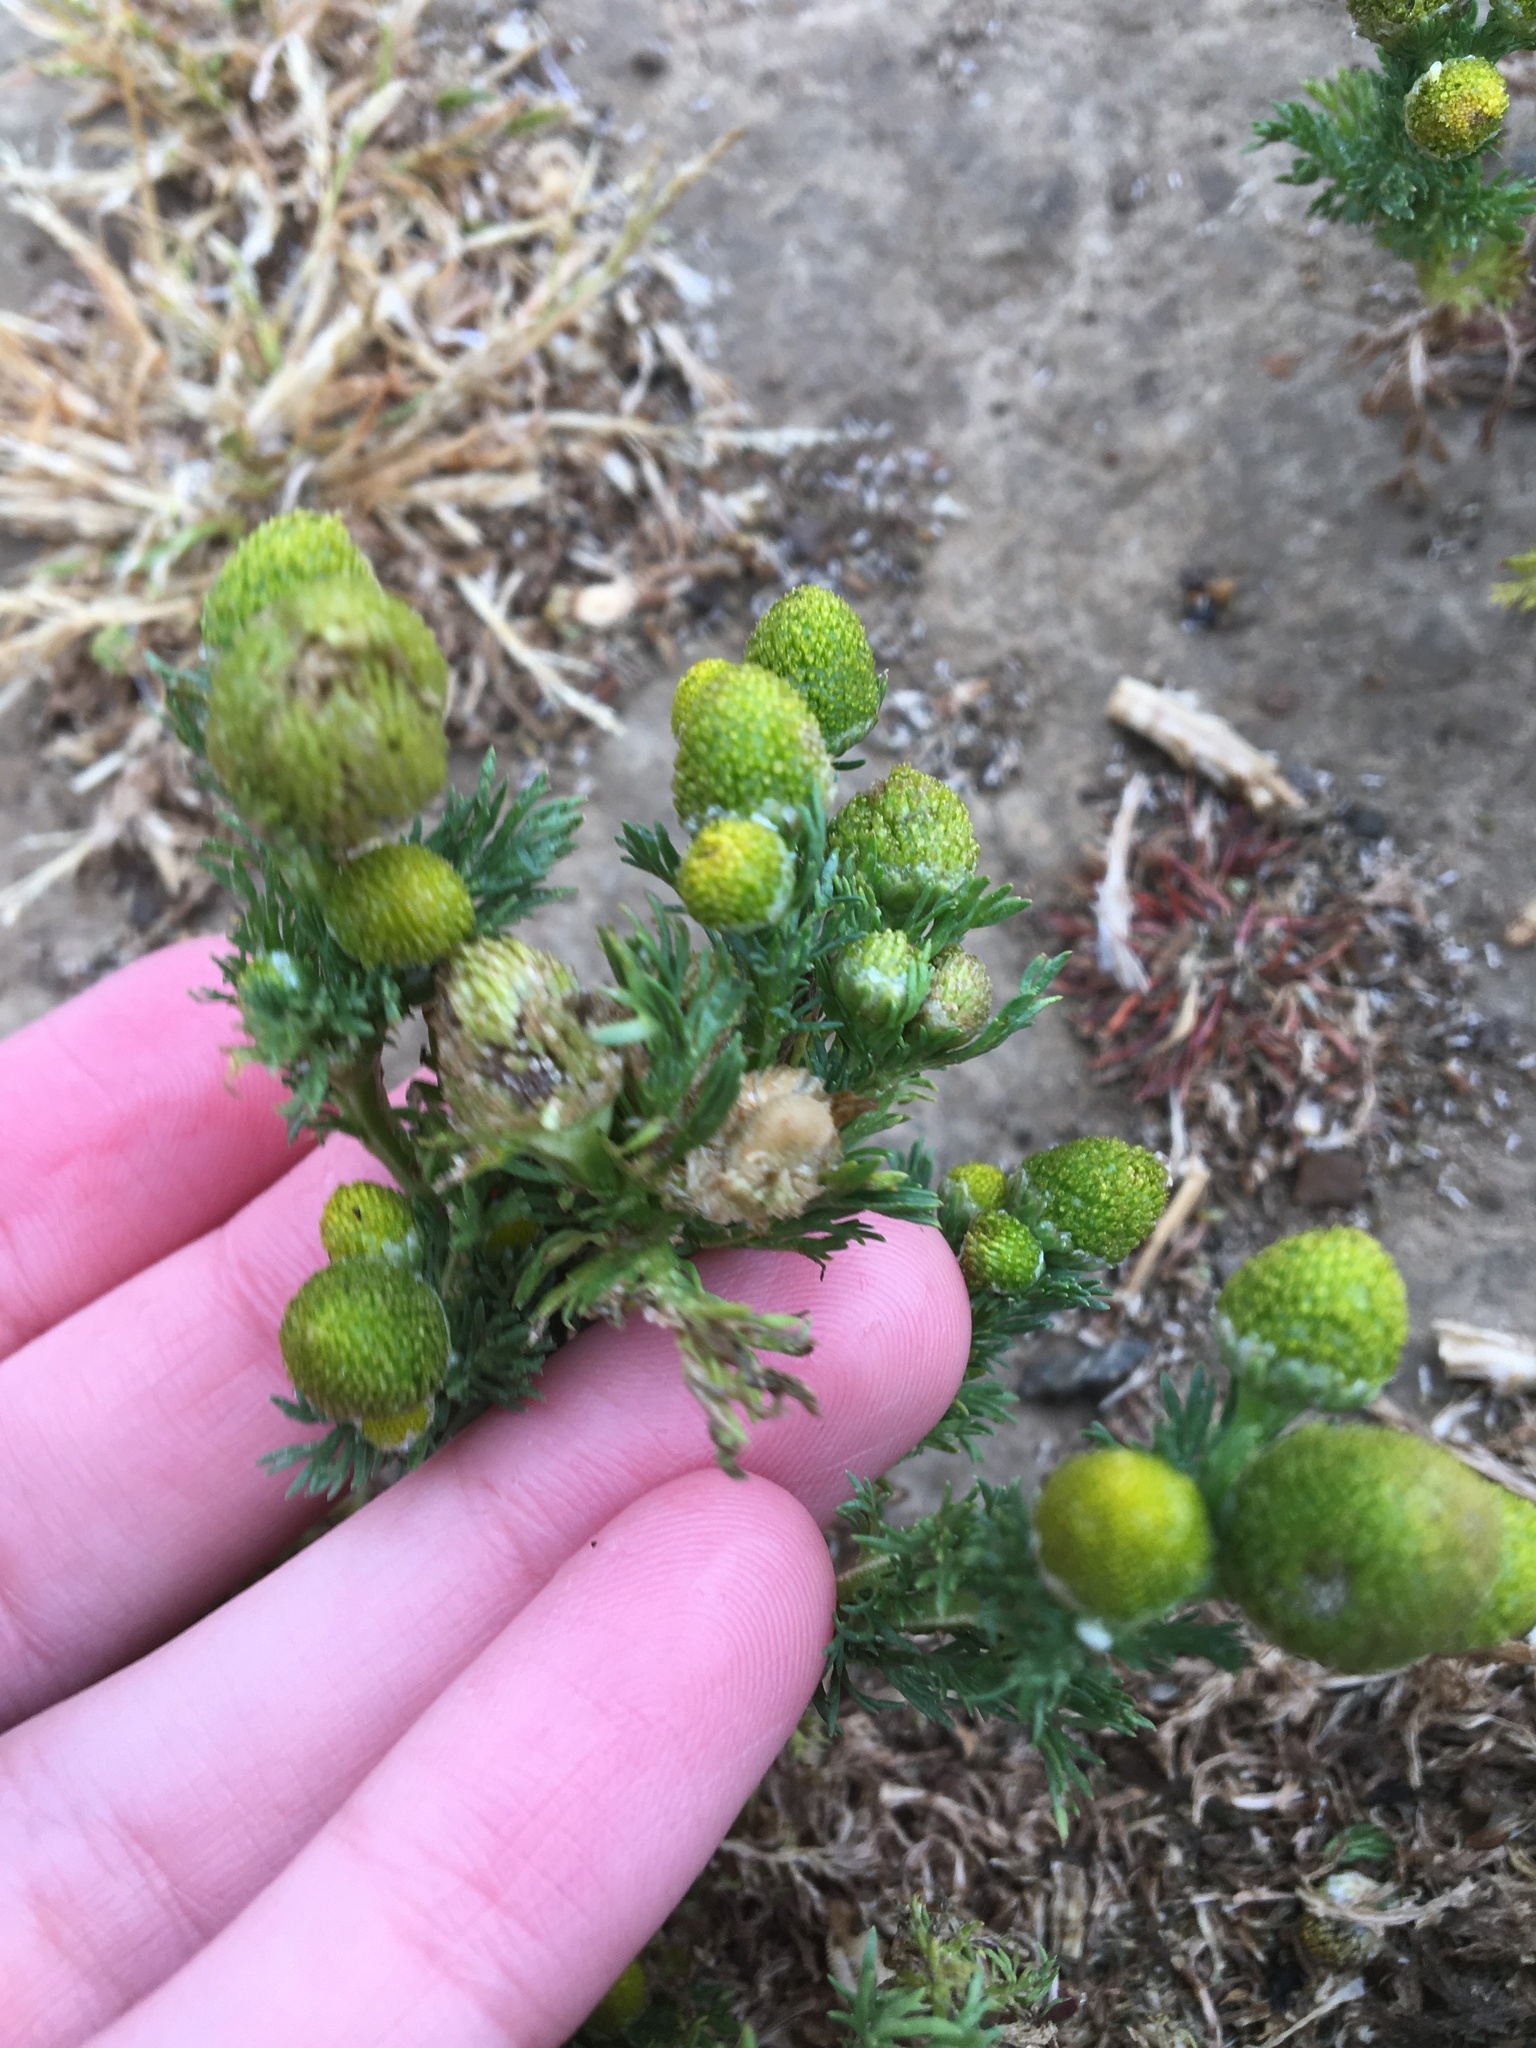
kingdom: Plantae
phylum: Tracheophyta
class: Magnoliopsida
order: Asterales
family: Asteraceae
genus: Matricaria
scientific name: Matricaria discoidea
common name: Disc mayweed
